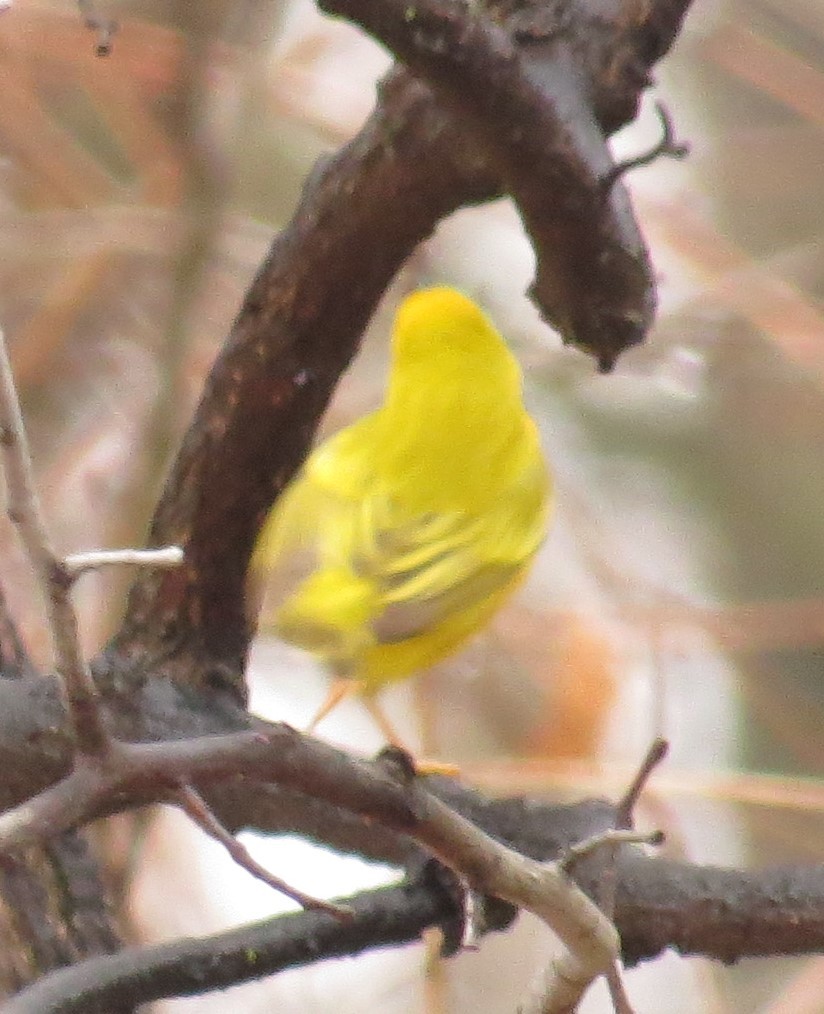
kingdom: Animalia
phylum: Chordata
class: Aves
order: Passeriformes
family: Parulidae
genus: Setophaga
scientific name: Setophaga petechia
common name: Yellow warbler
